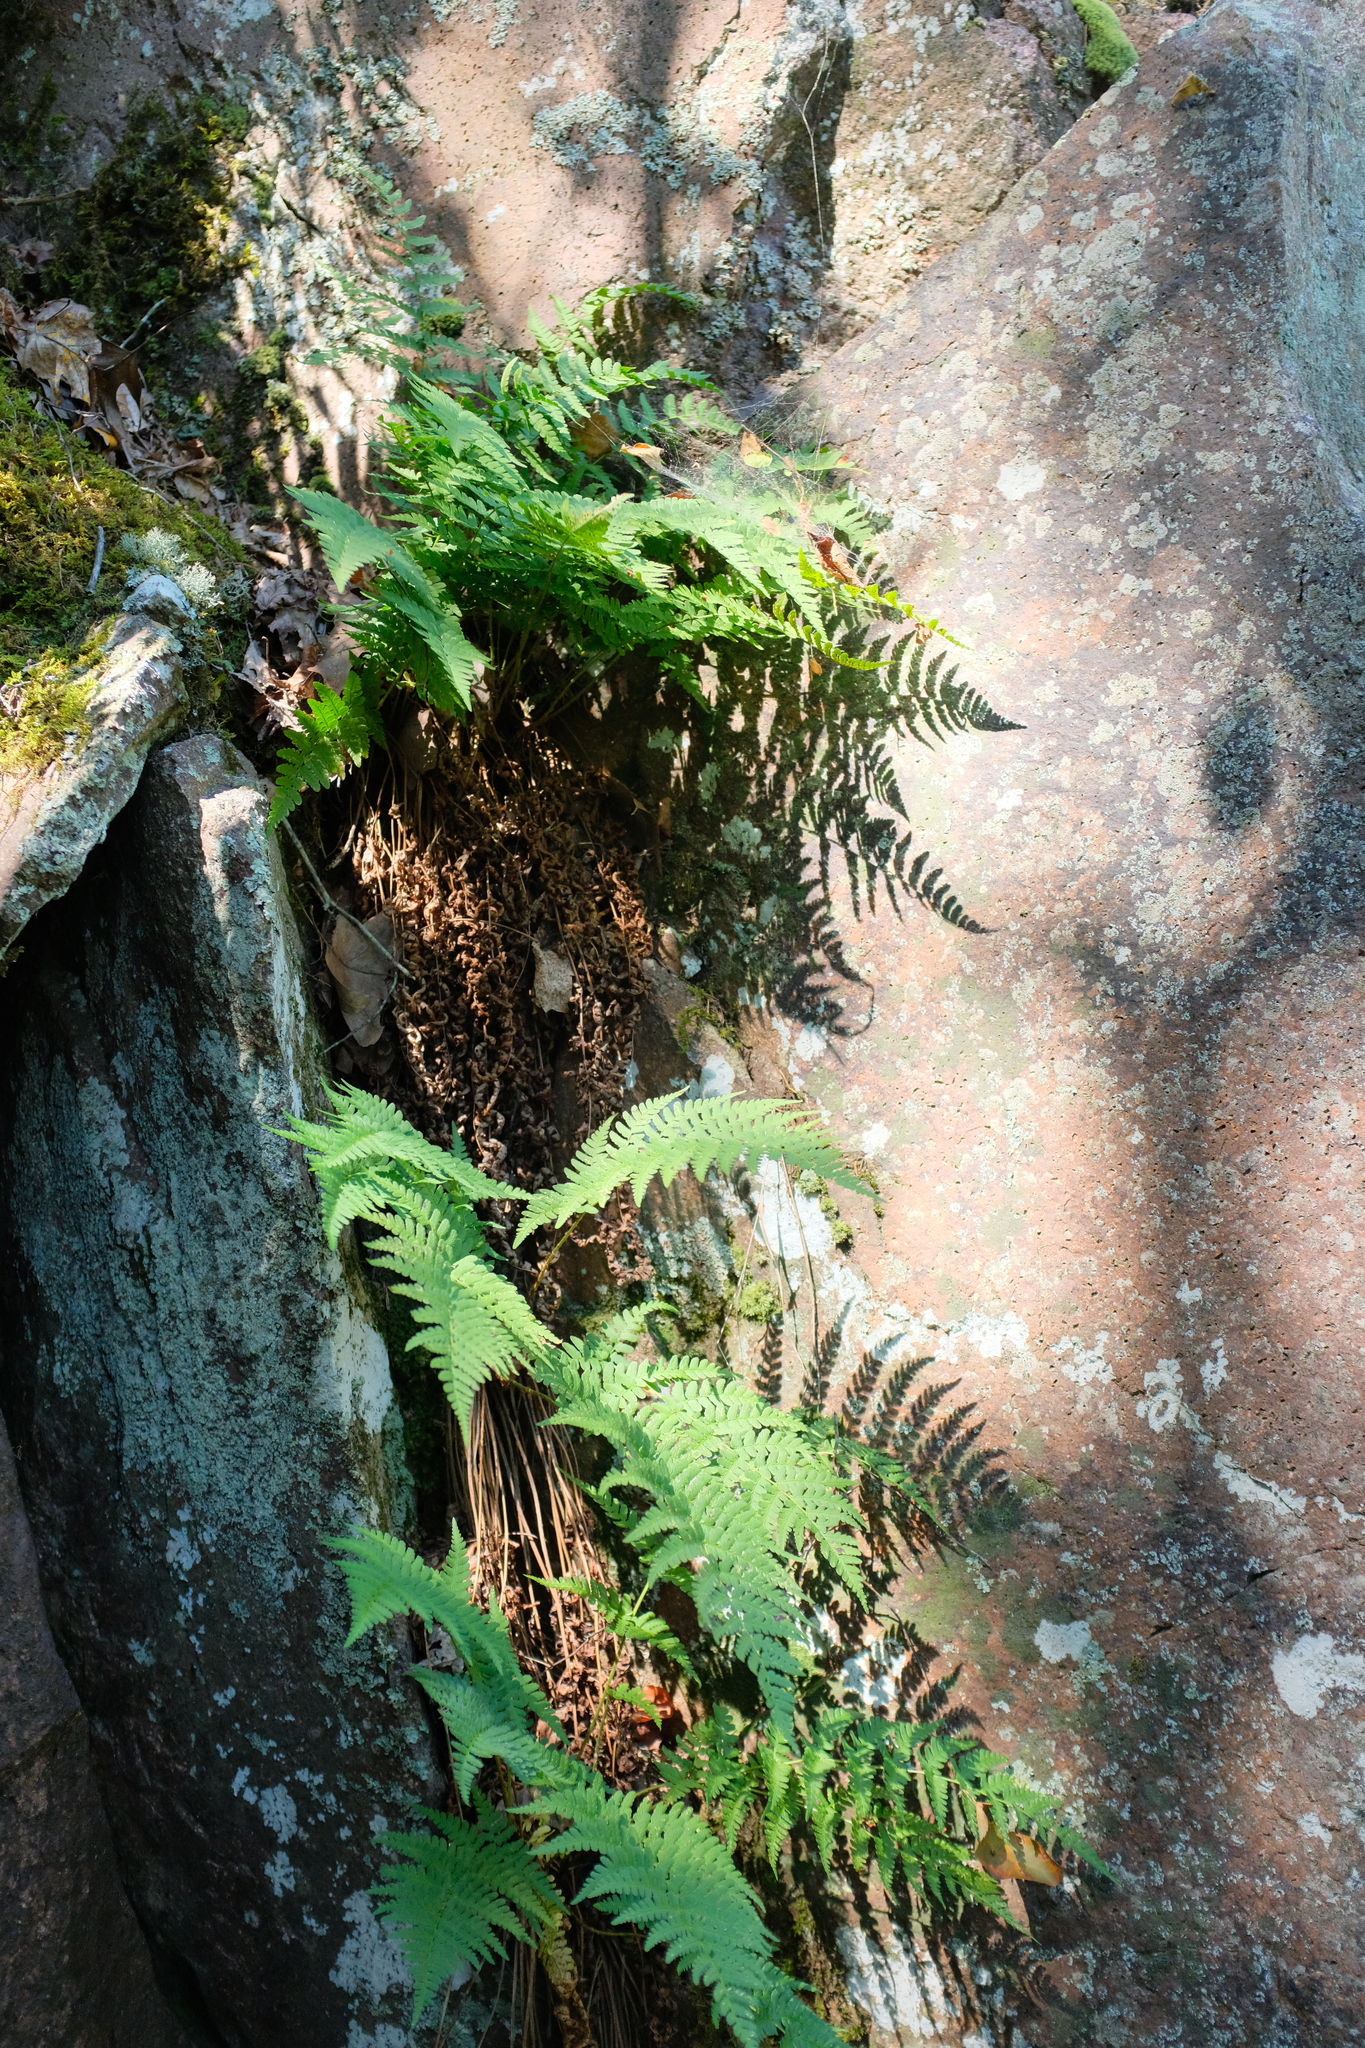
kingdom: Plantae
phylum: Tracheophyta
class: Polypodiopsida
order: Polypodiales
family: Dryopteridaceae
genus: Dryopteris
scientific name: Dryopteris marginalis
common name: Marginal wood fern
